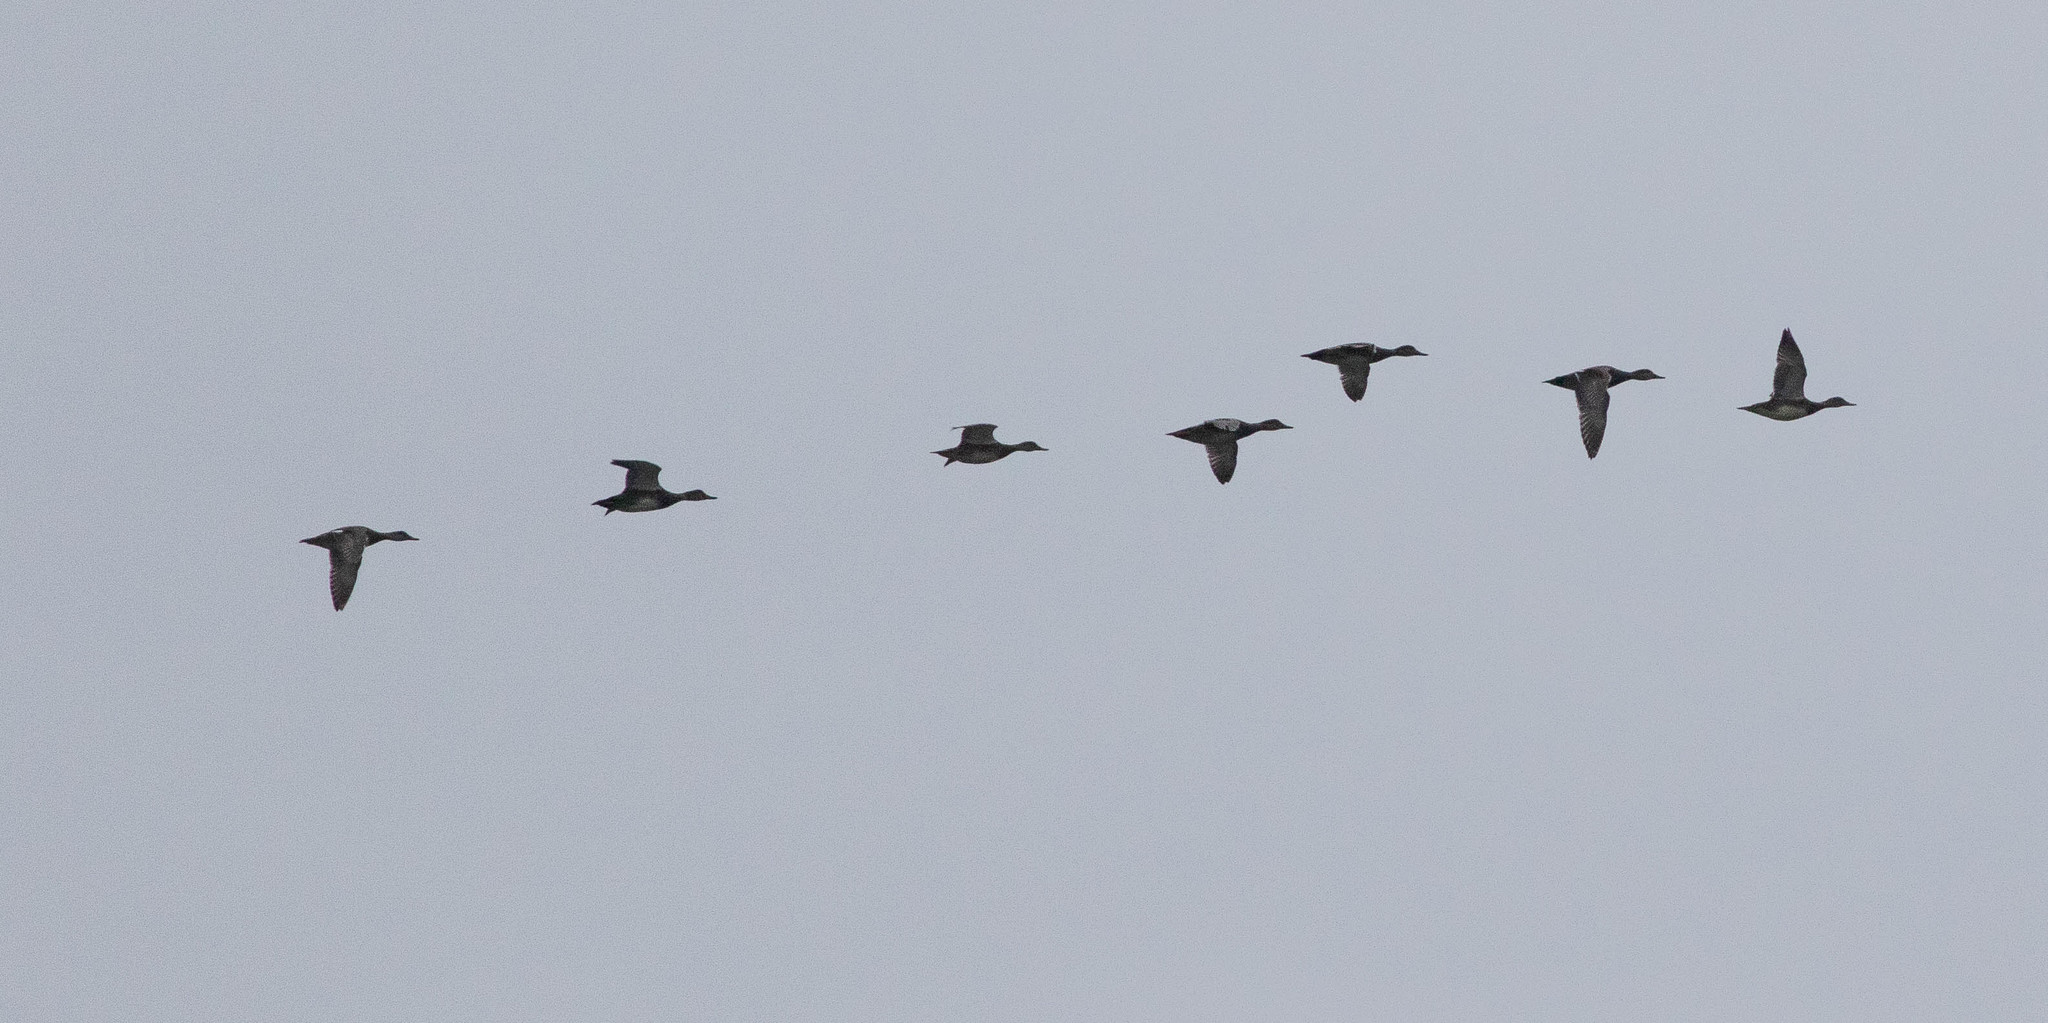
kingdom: Animalia
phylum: Chordata
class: Aves
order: Anseriformes
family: Anatidae
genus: Mareca
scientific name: Mareca strepera
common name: Gadwall
